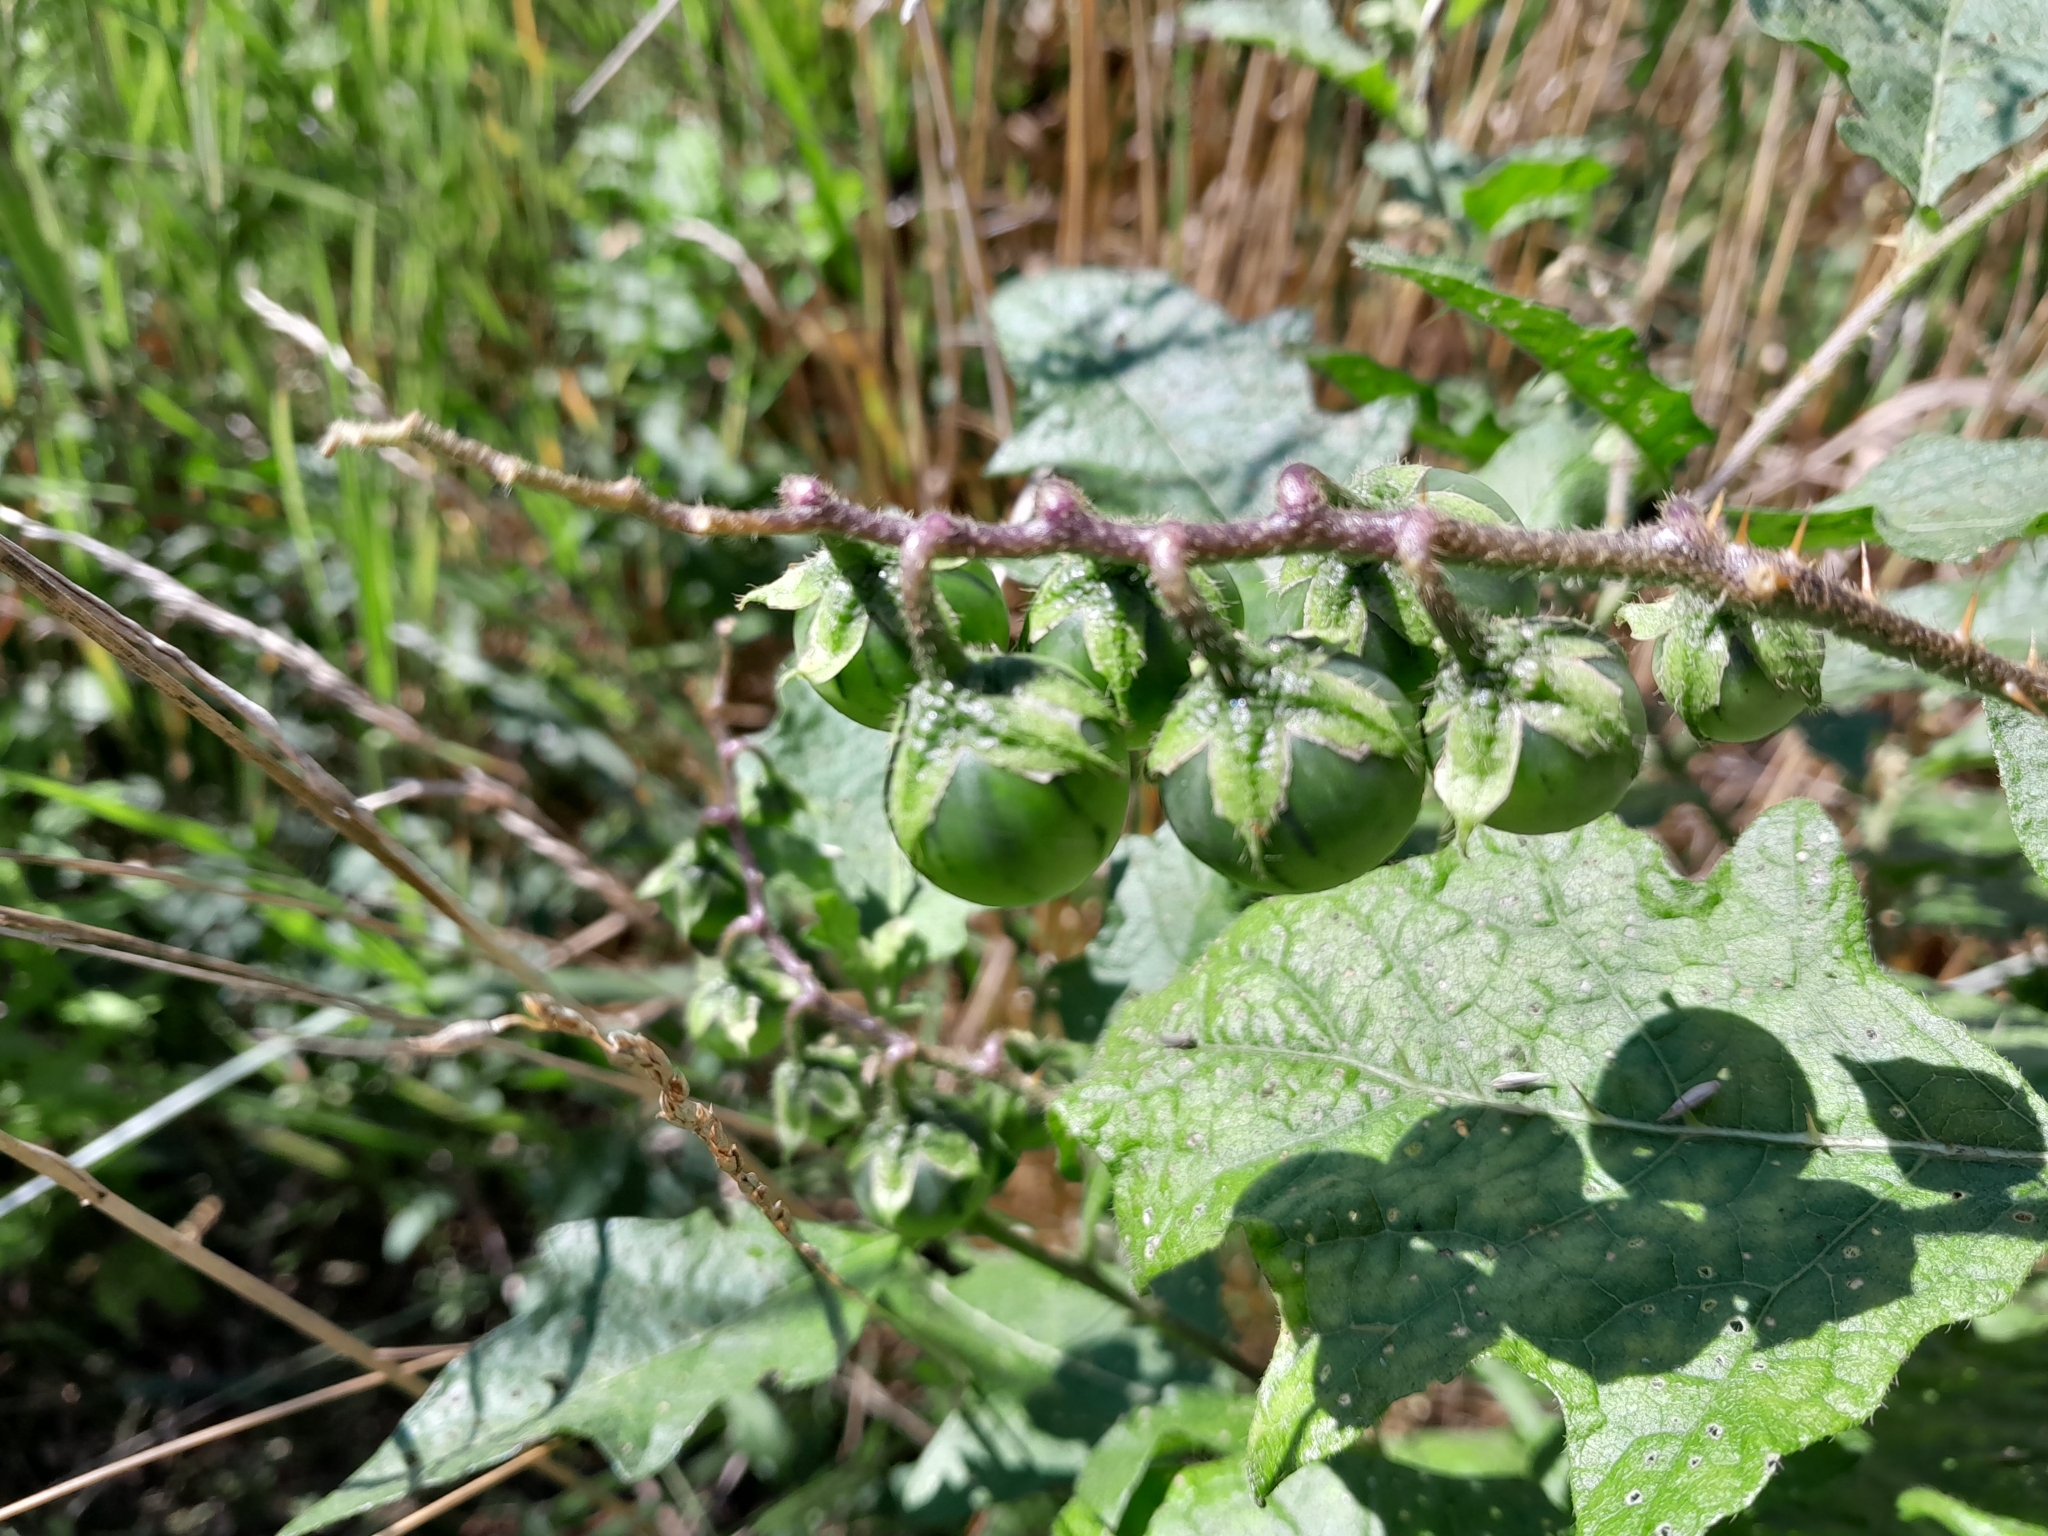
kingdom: Plantae
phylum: Tracheophyta
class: Magnoliopsida
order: Solanales
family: Solanaceae
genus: Solanum
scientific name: Solanum carolinense
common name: Horse-nettle
